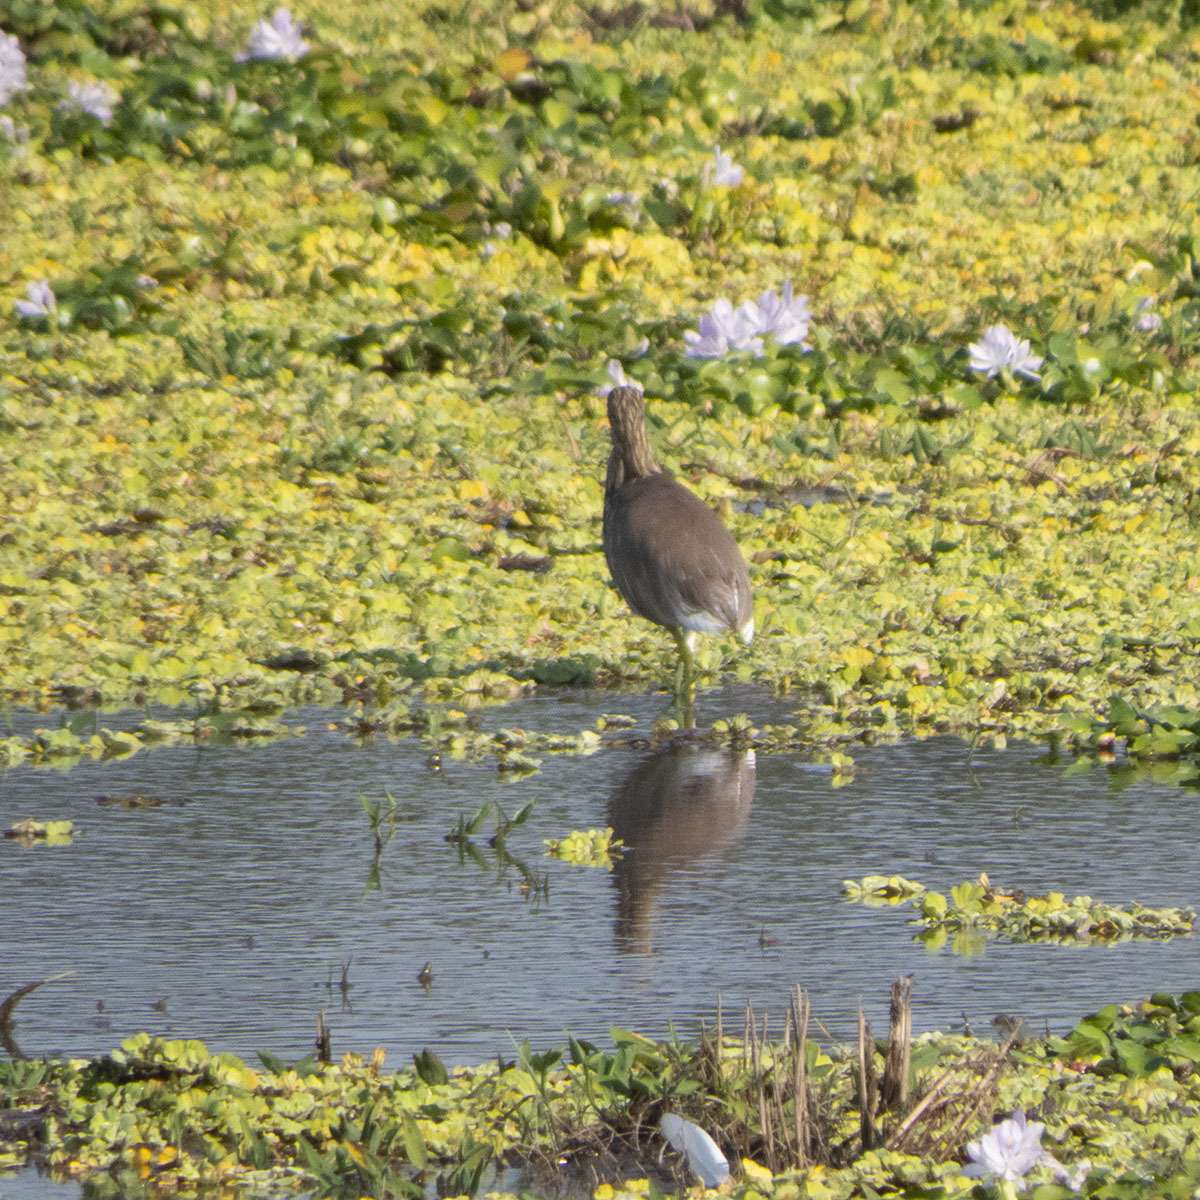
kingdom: Animalia
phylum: Chordata
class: Aves
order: Pelecaniformes
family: Ardeidae
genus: Ardeola
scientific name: Ardeola grayii
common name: Indian pond heron
